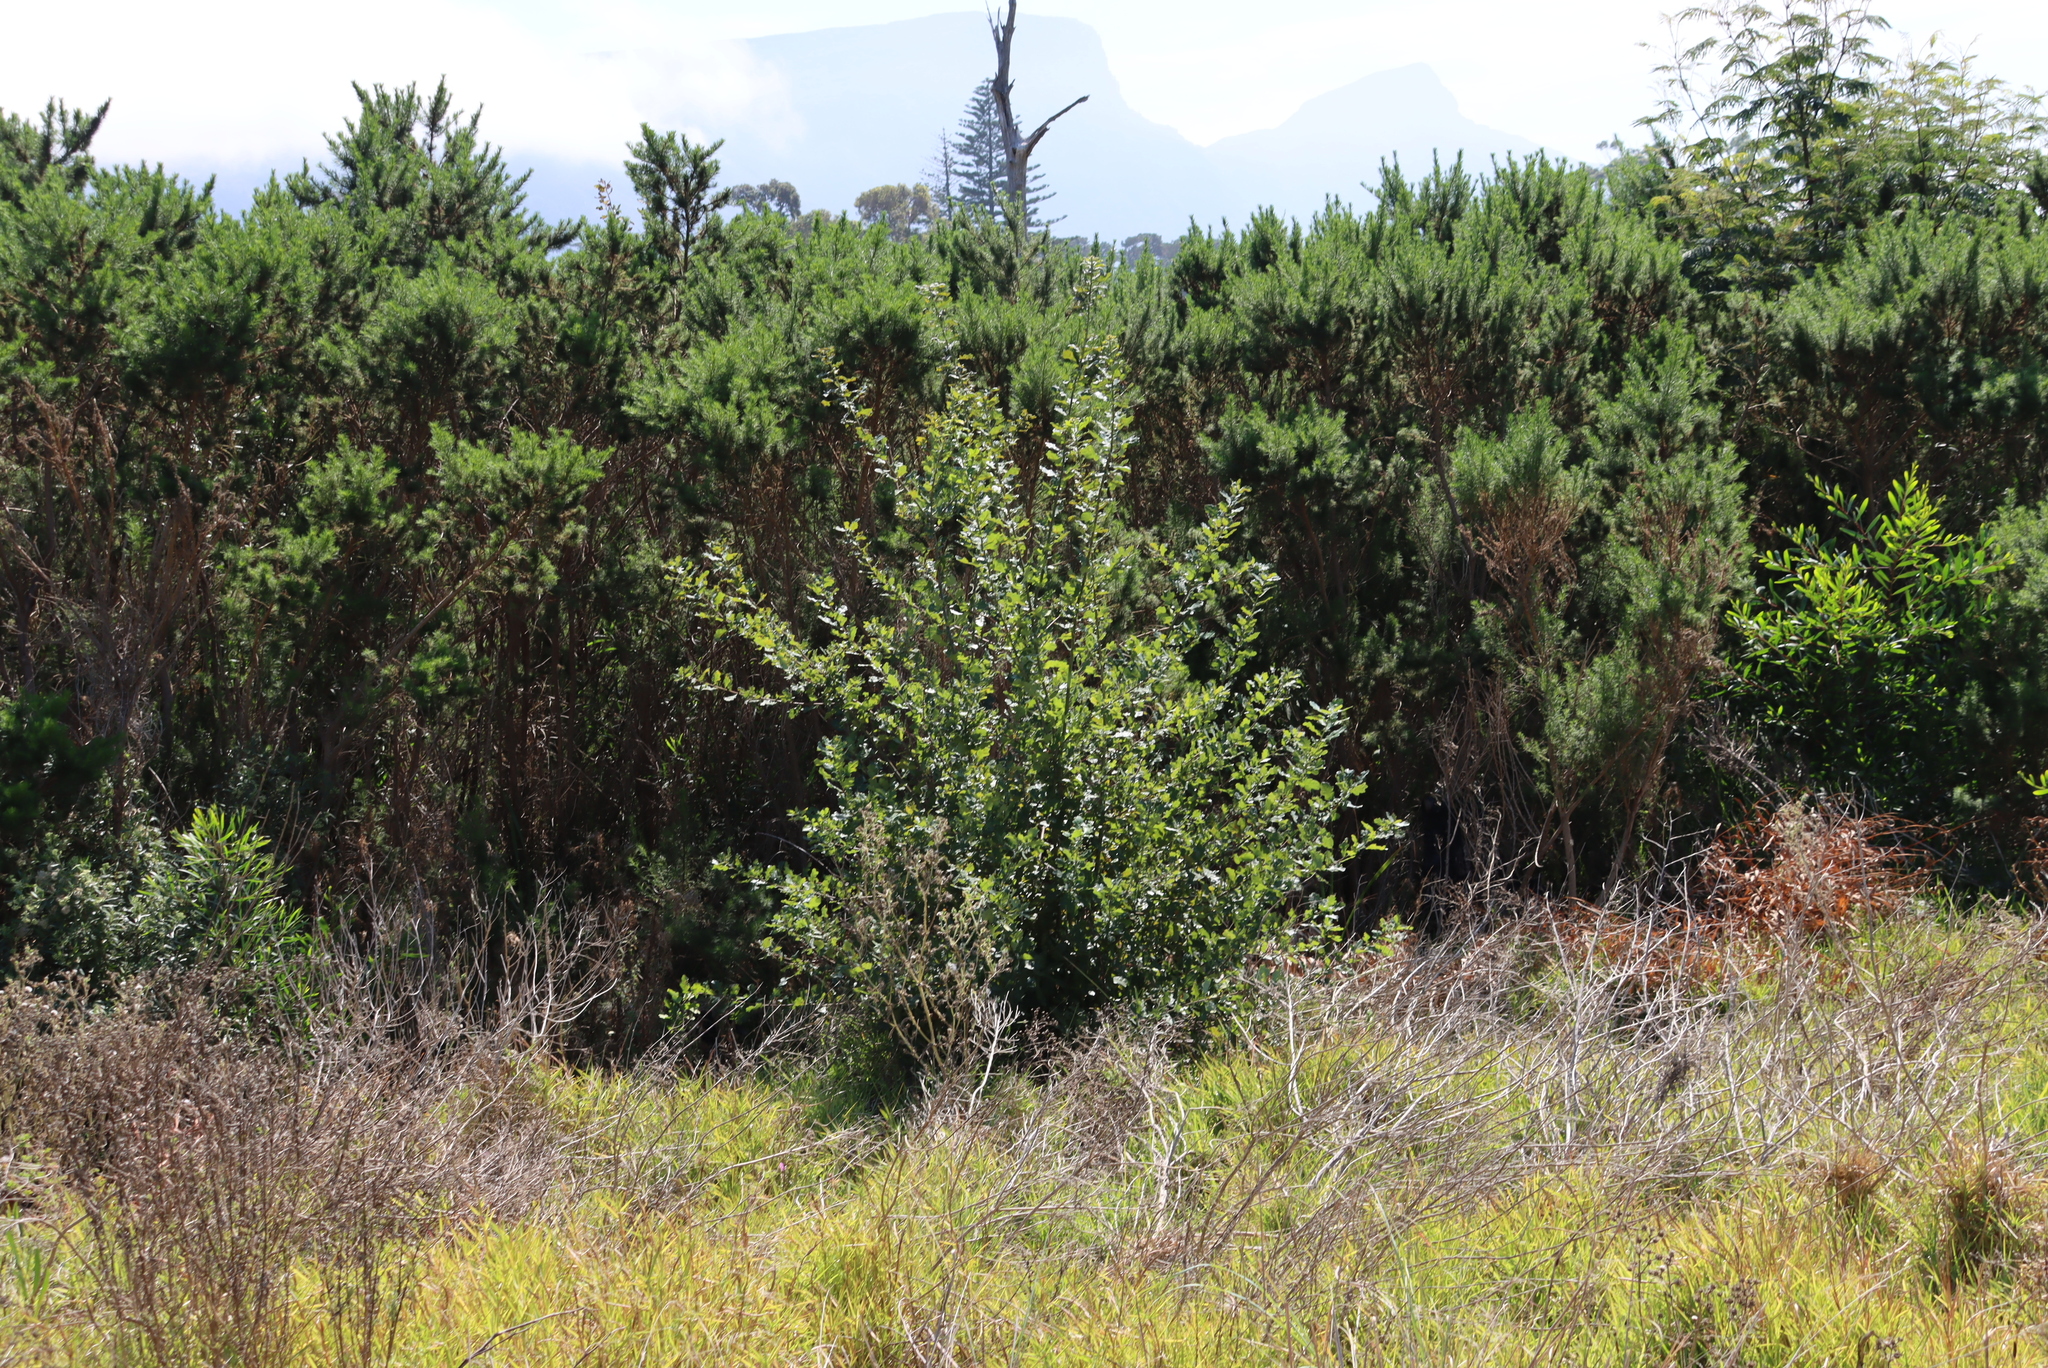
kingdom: Plantae
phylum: Tracheophyta
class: Magnoliopsida
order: Fagales
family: Fagaceae
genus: Quercus
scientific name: Quercus robur
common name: Pedunculate oak
